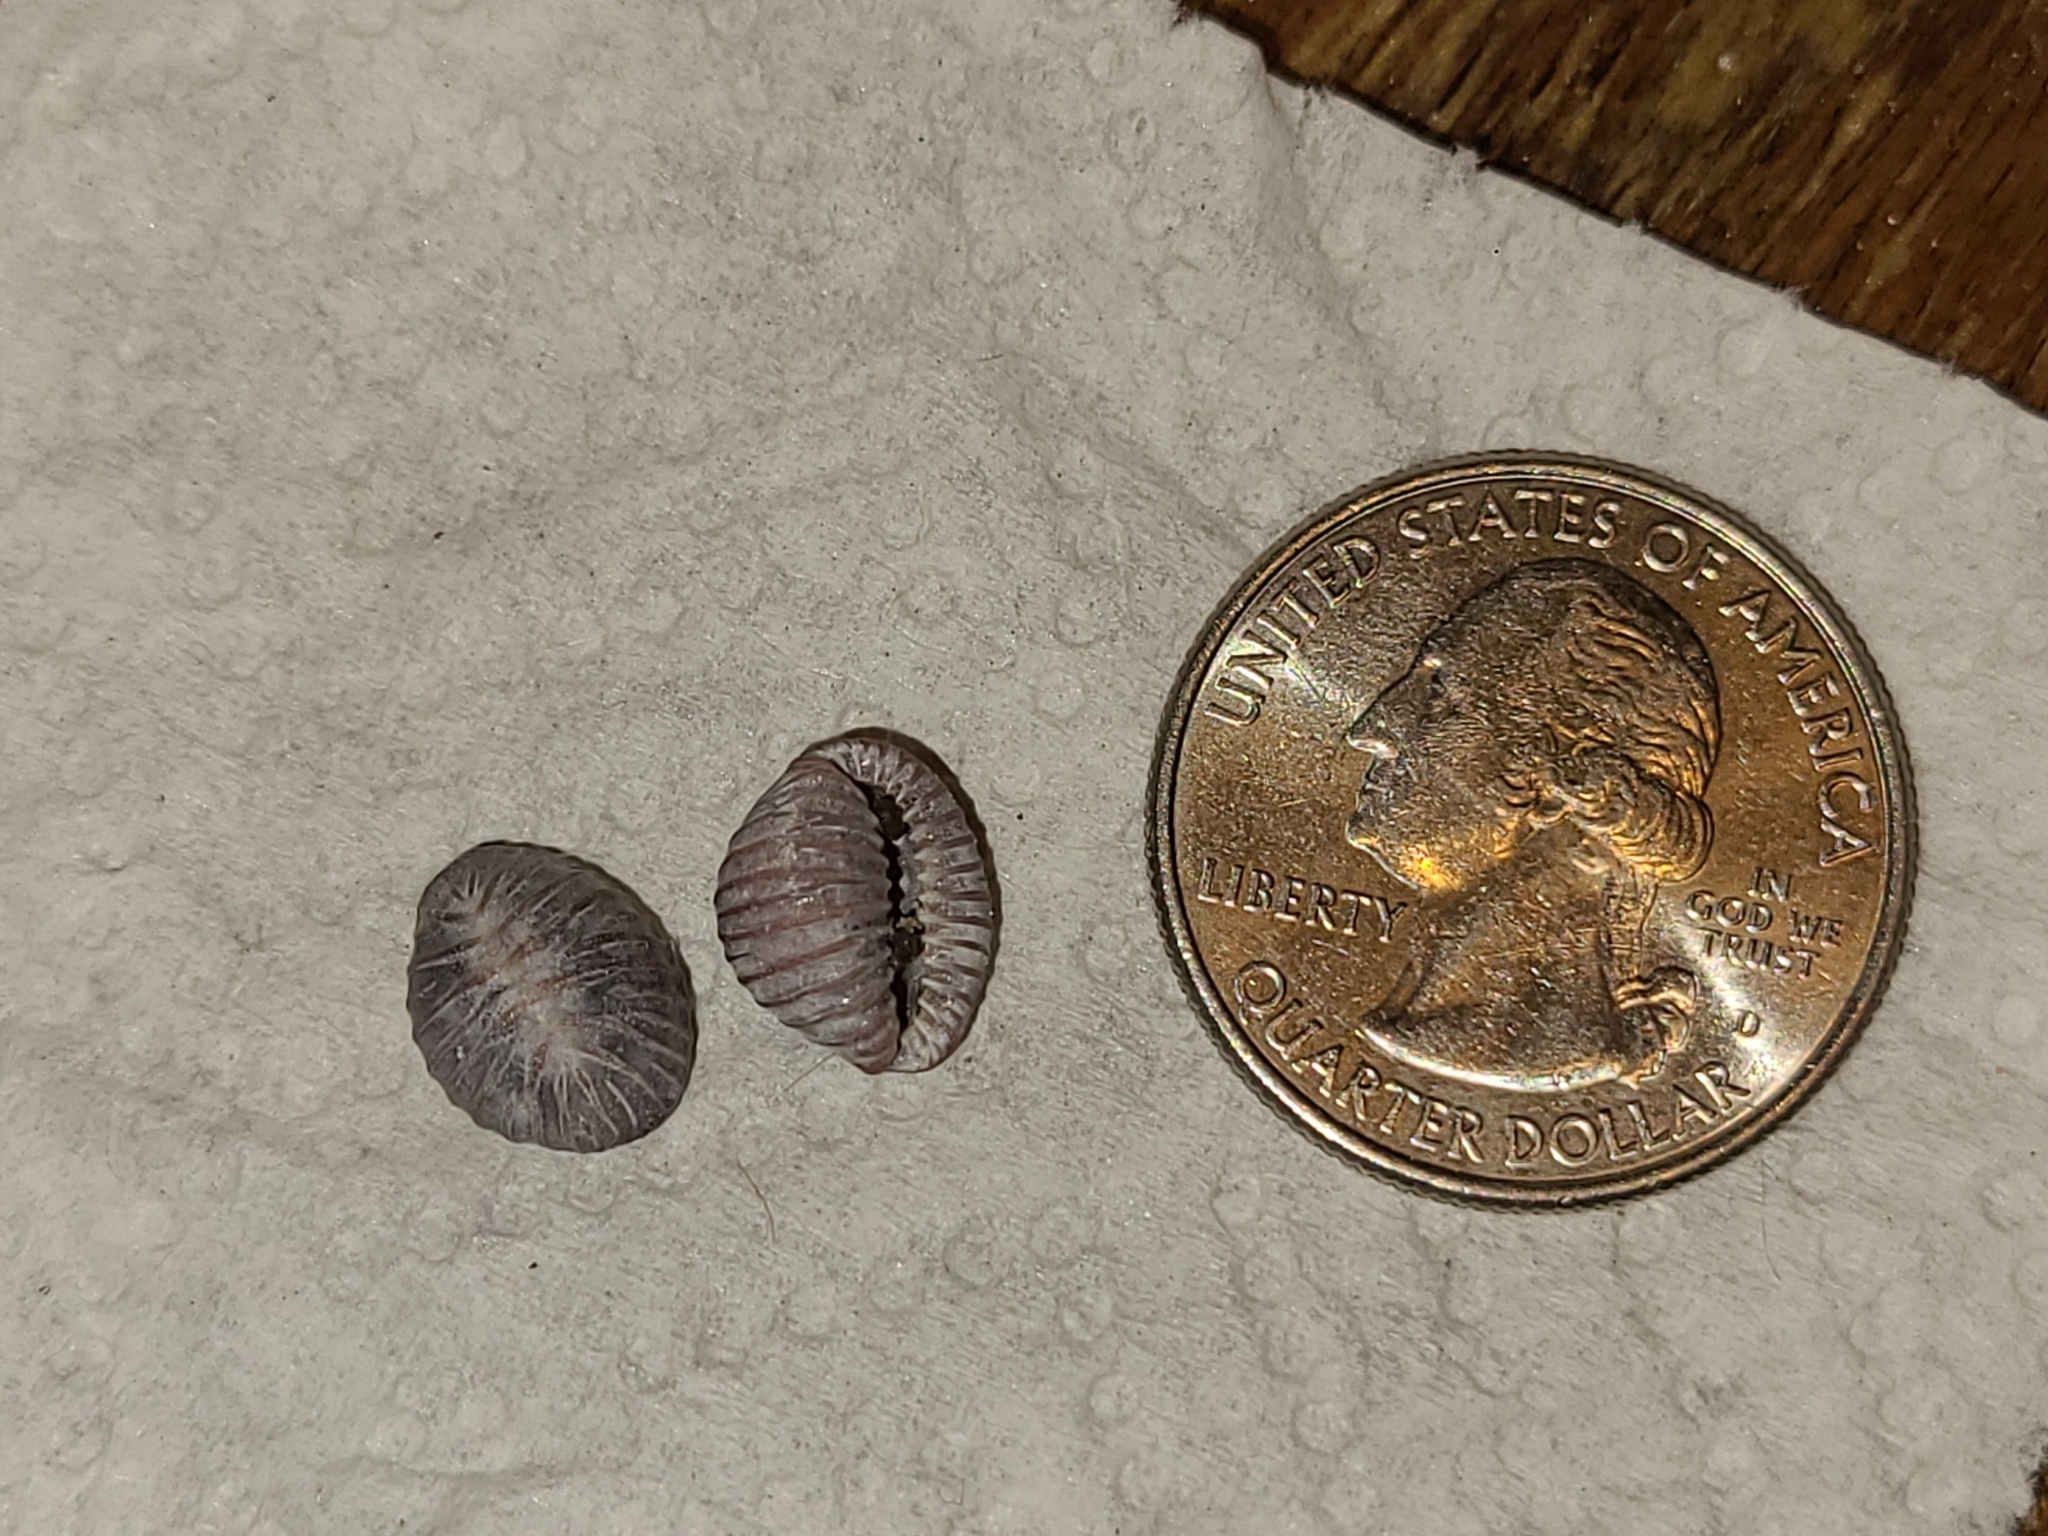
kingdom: Animalia
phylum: Mollusca
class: Gastropoda
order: Littorinimorpha
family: Triviidae
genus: Pseudopusula
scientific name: Pseudopusula californiana
